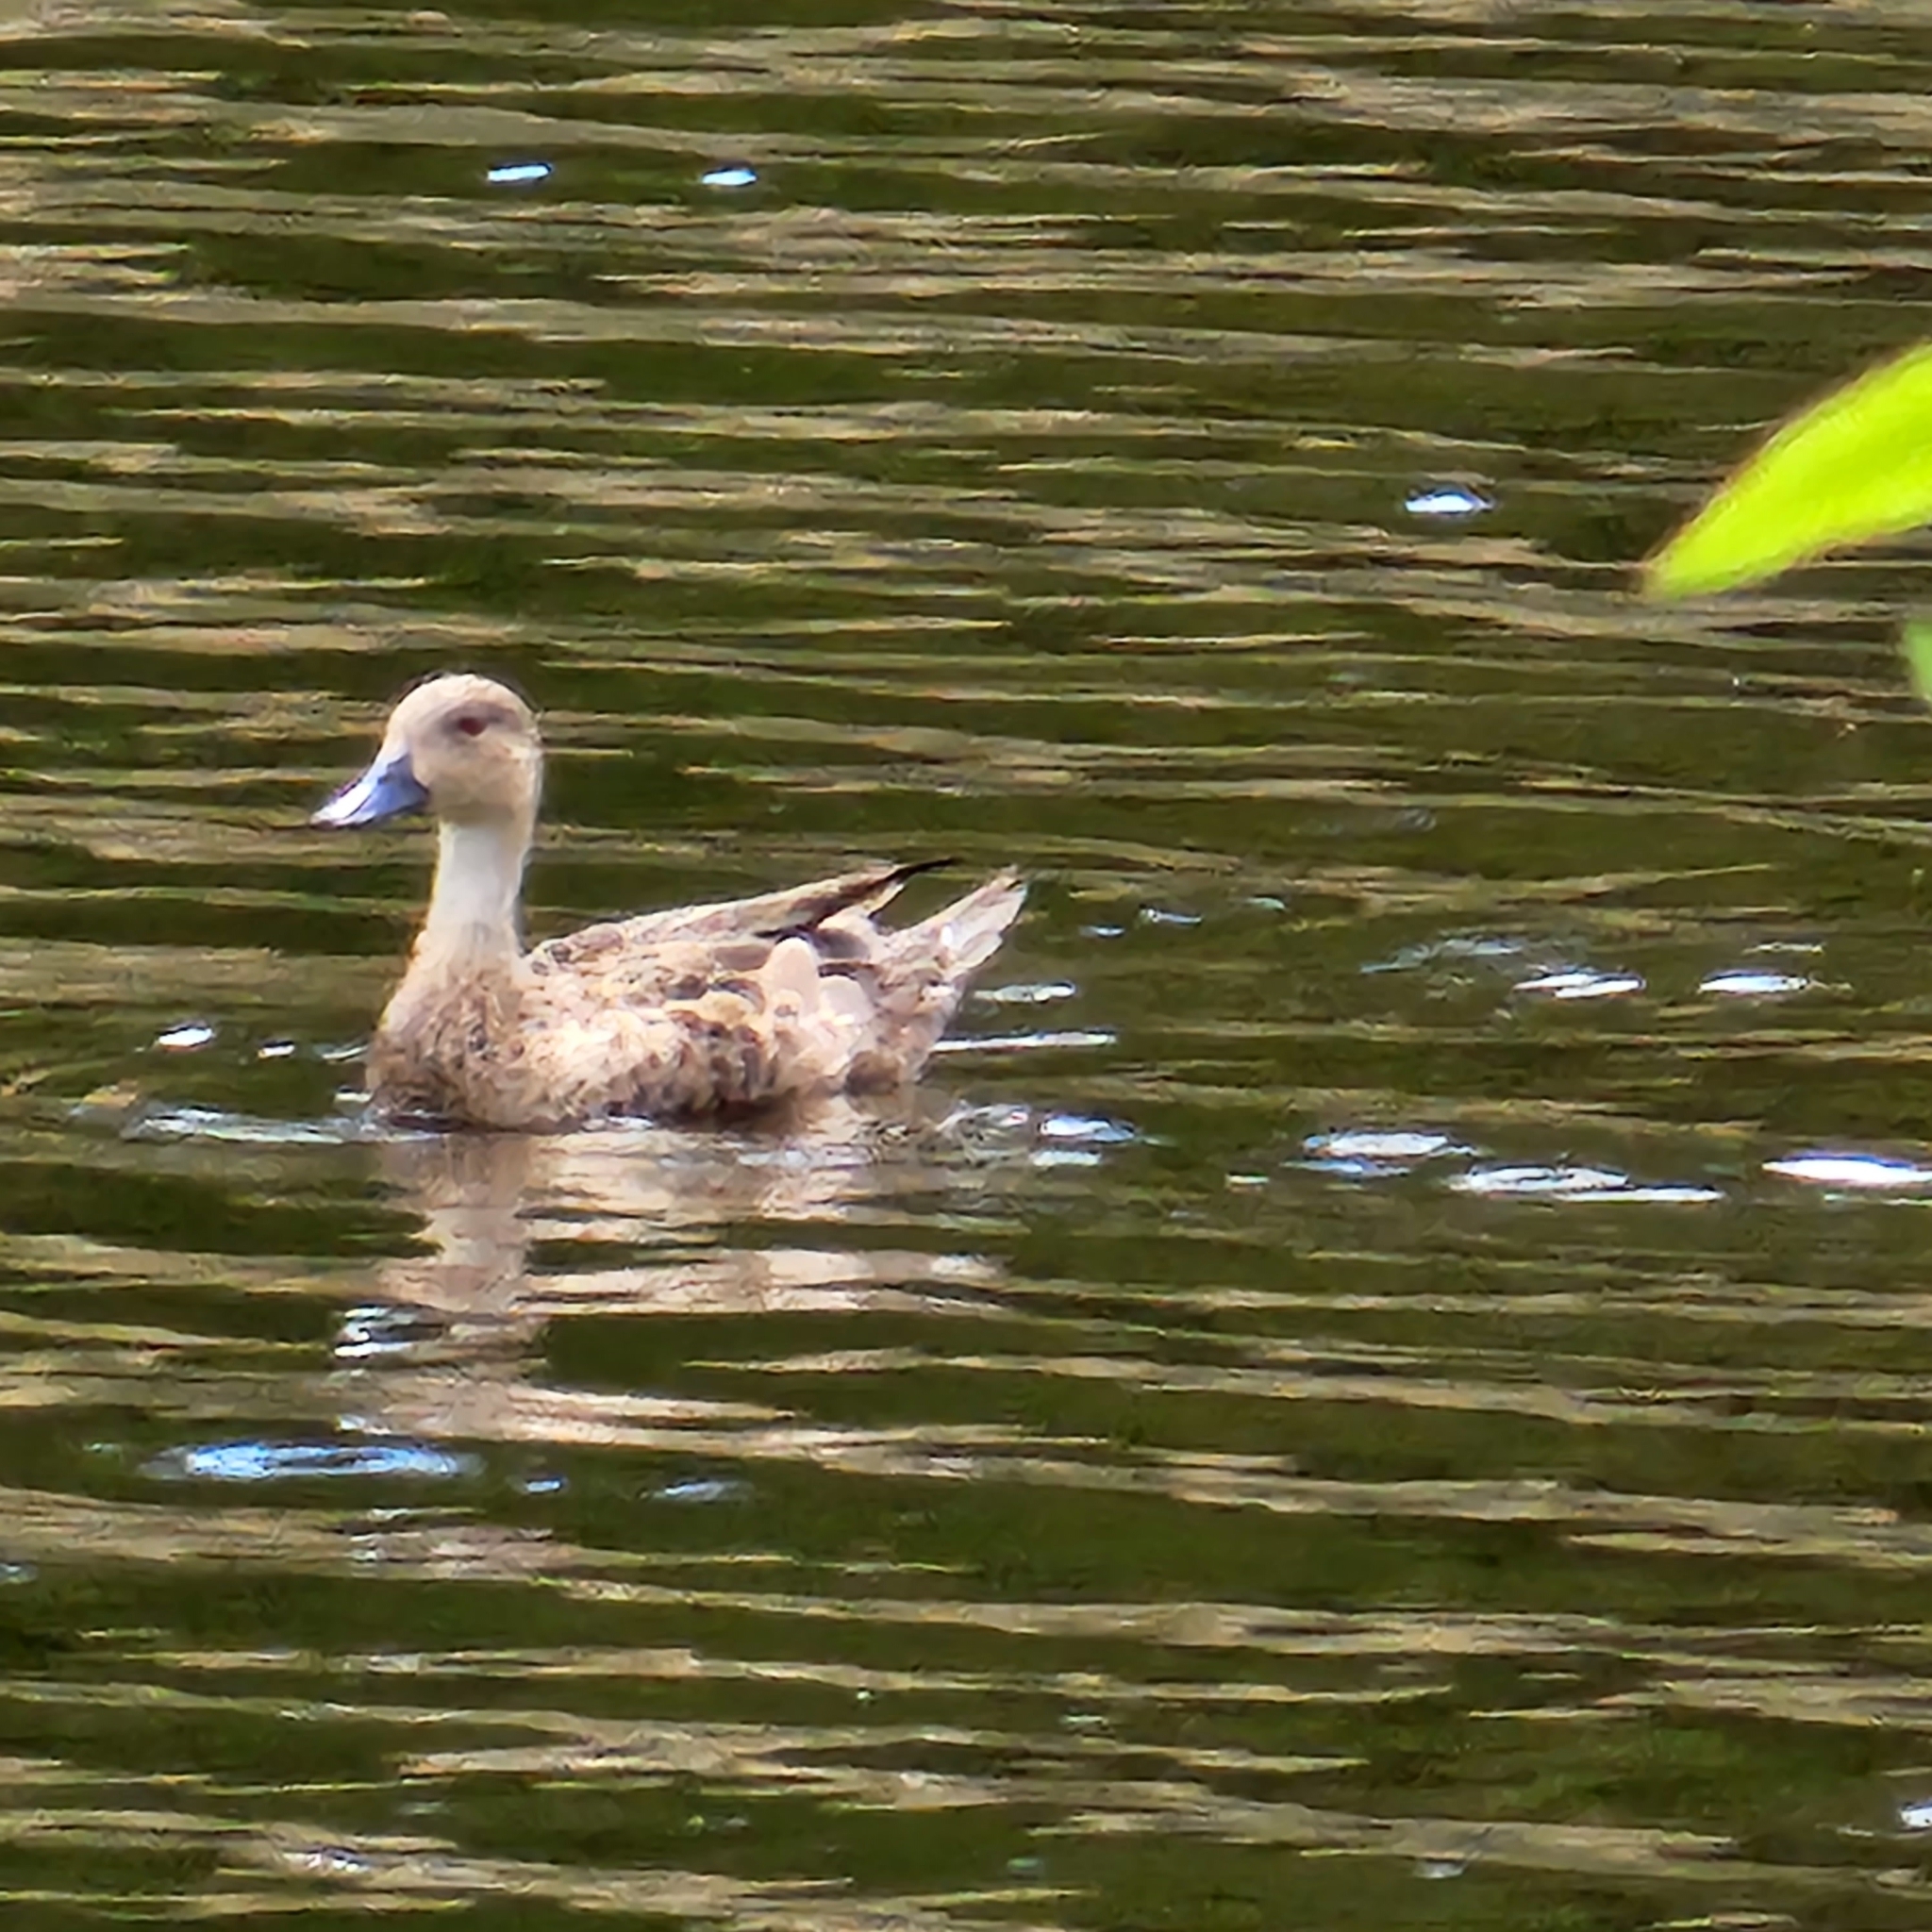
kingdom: Animalia
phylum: Chordata
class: Aves
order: Anseriformes
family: Anatidae
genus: Anas
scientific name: Anas gracilis
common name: Grey teal
